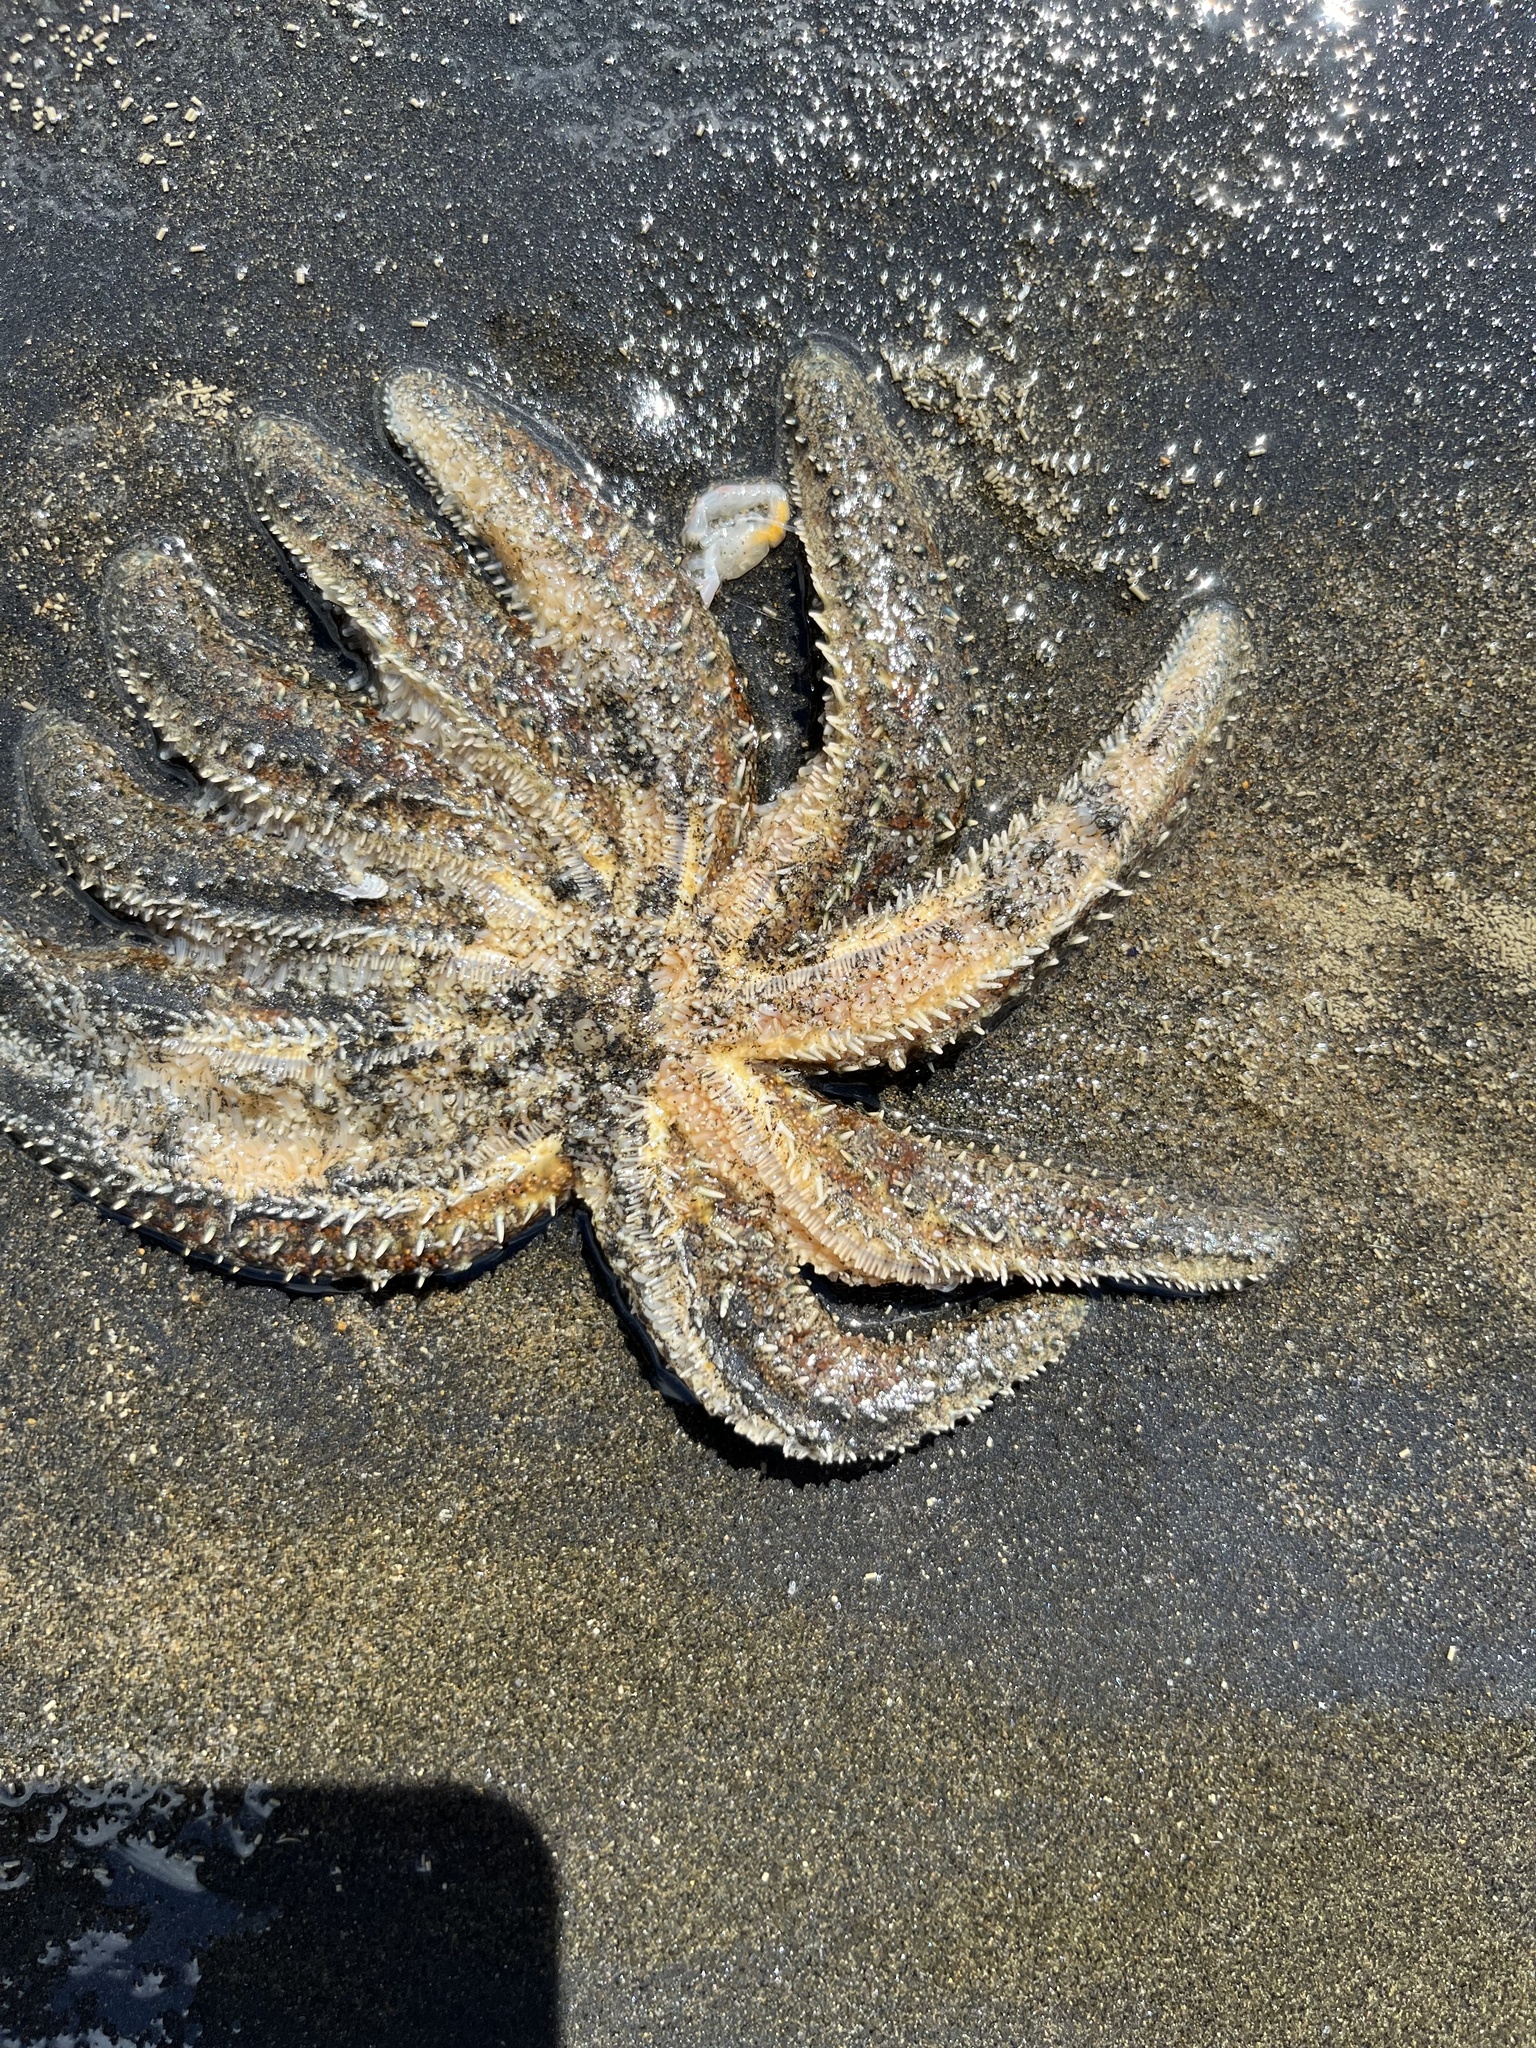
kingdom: Animalia
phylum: Echinodermata
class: Asteroidea
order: Forcipulatida
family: Asteriidae
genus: Coscinasterias
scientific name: Coscinasterias muricata
